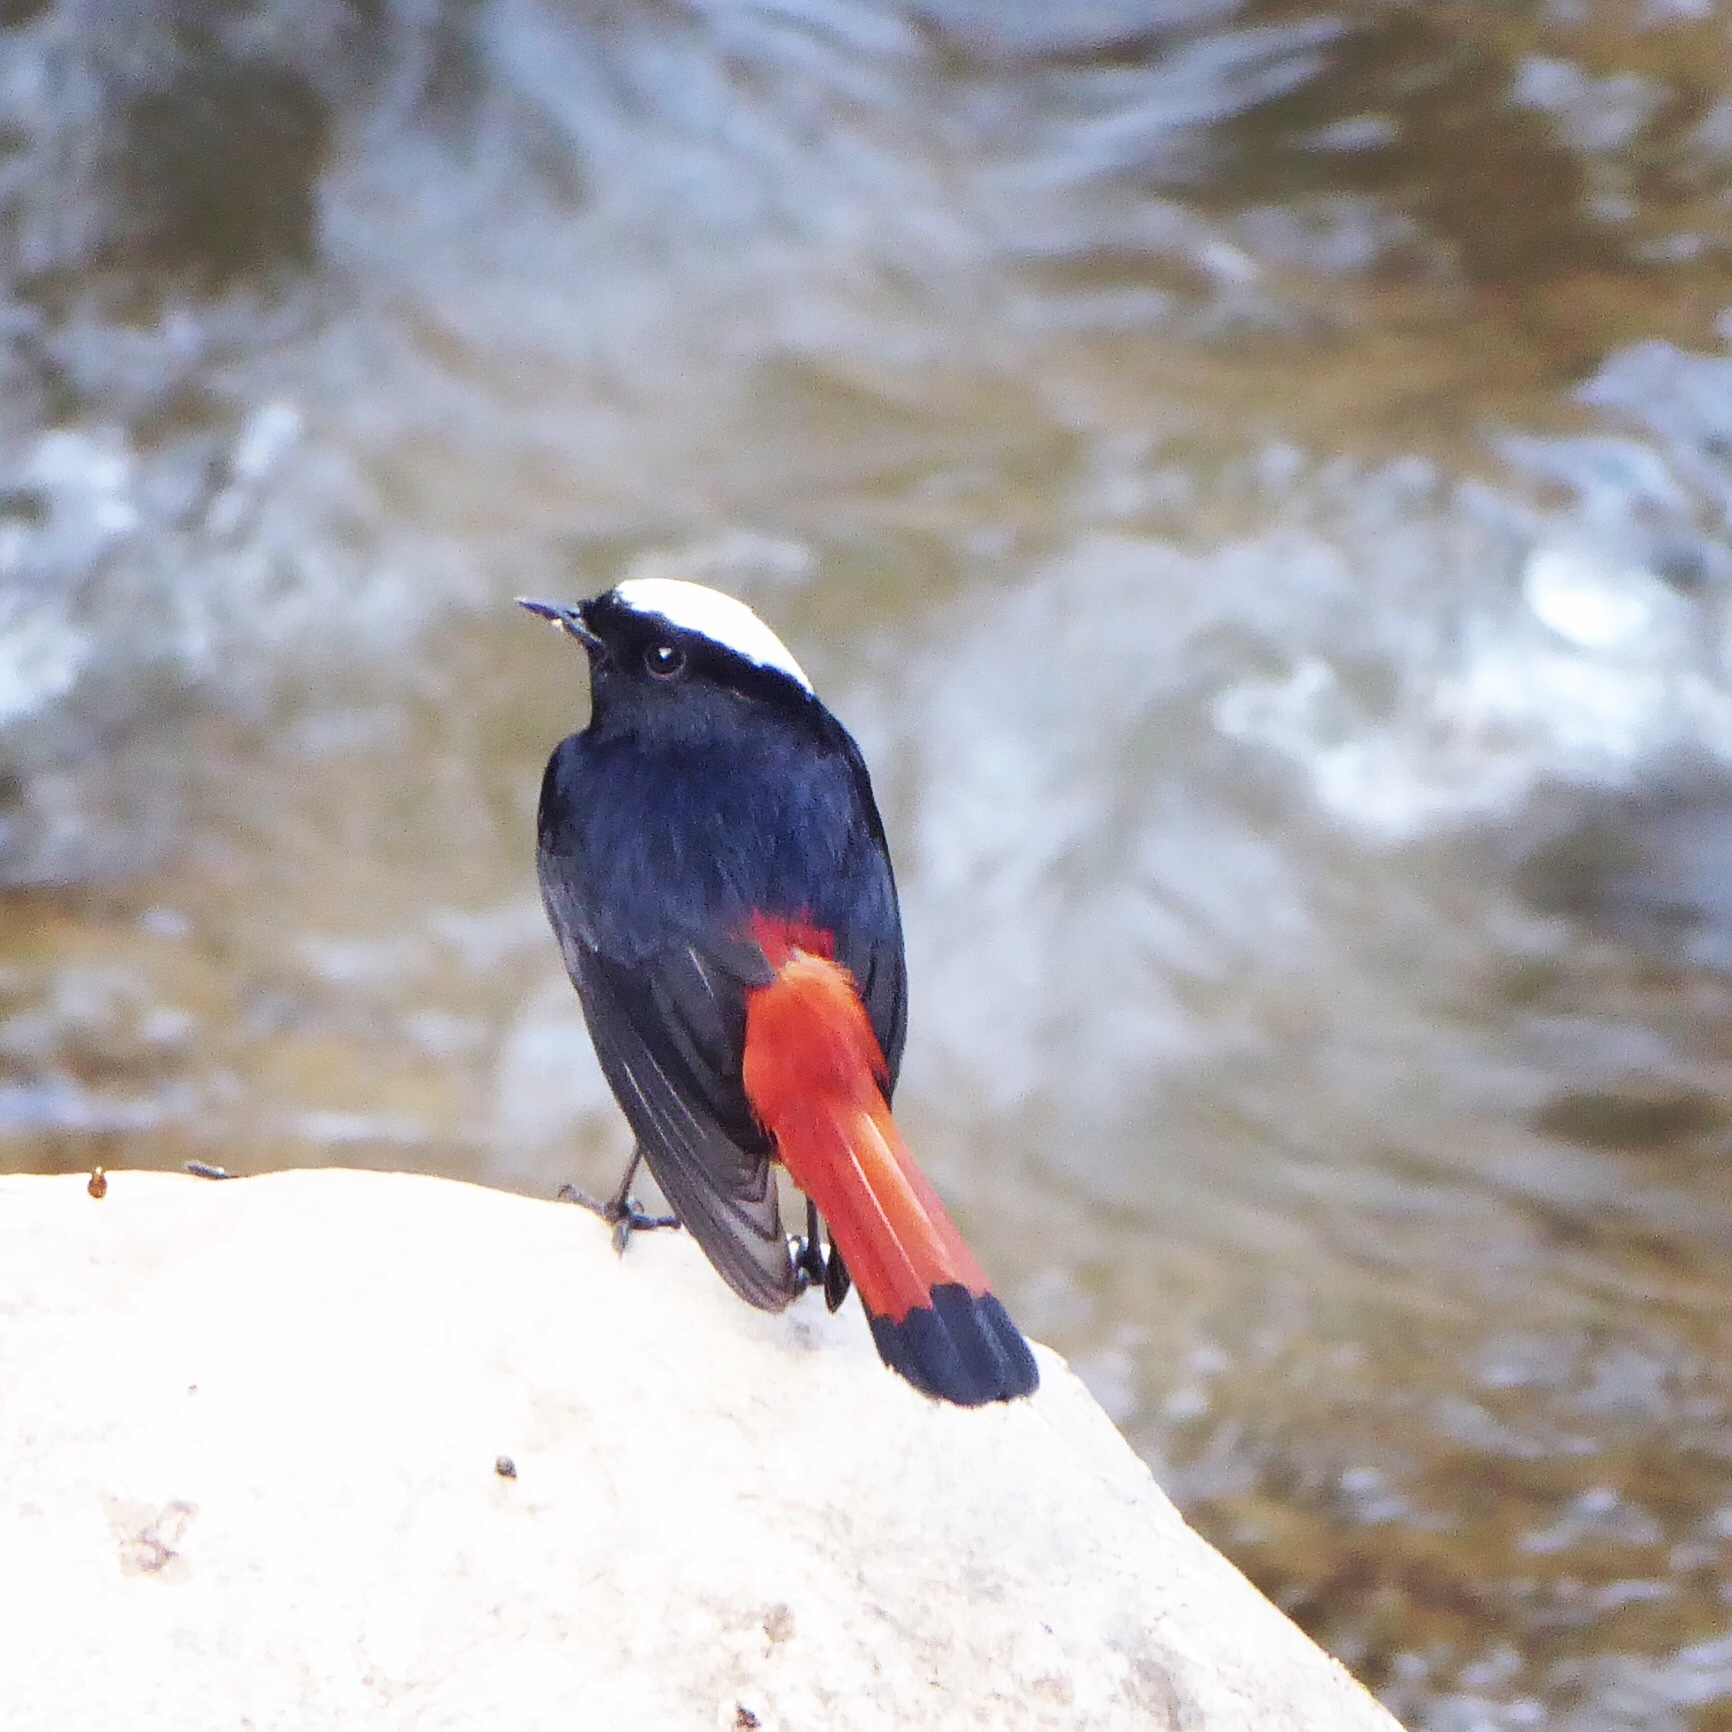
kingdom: Animalia
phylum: Chordata
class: Aves
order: Passeriformes
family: Muscicapidae
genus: Chaimarrornis
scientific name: Chaimarrornis leucocephalus
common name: White-capped redstart
